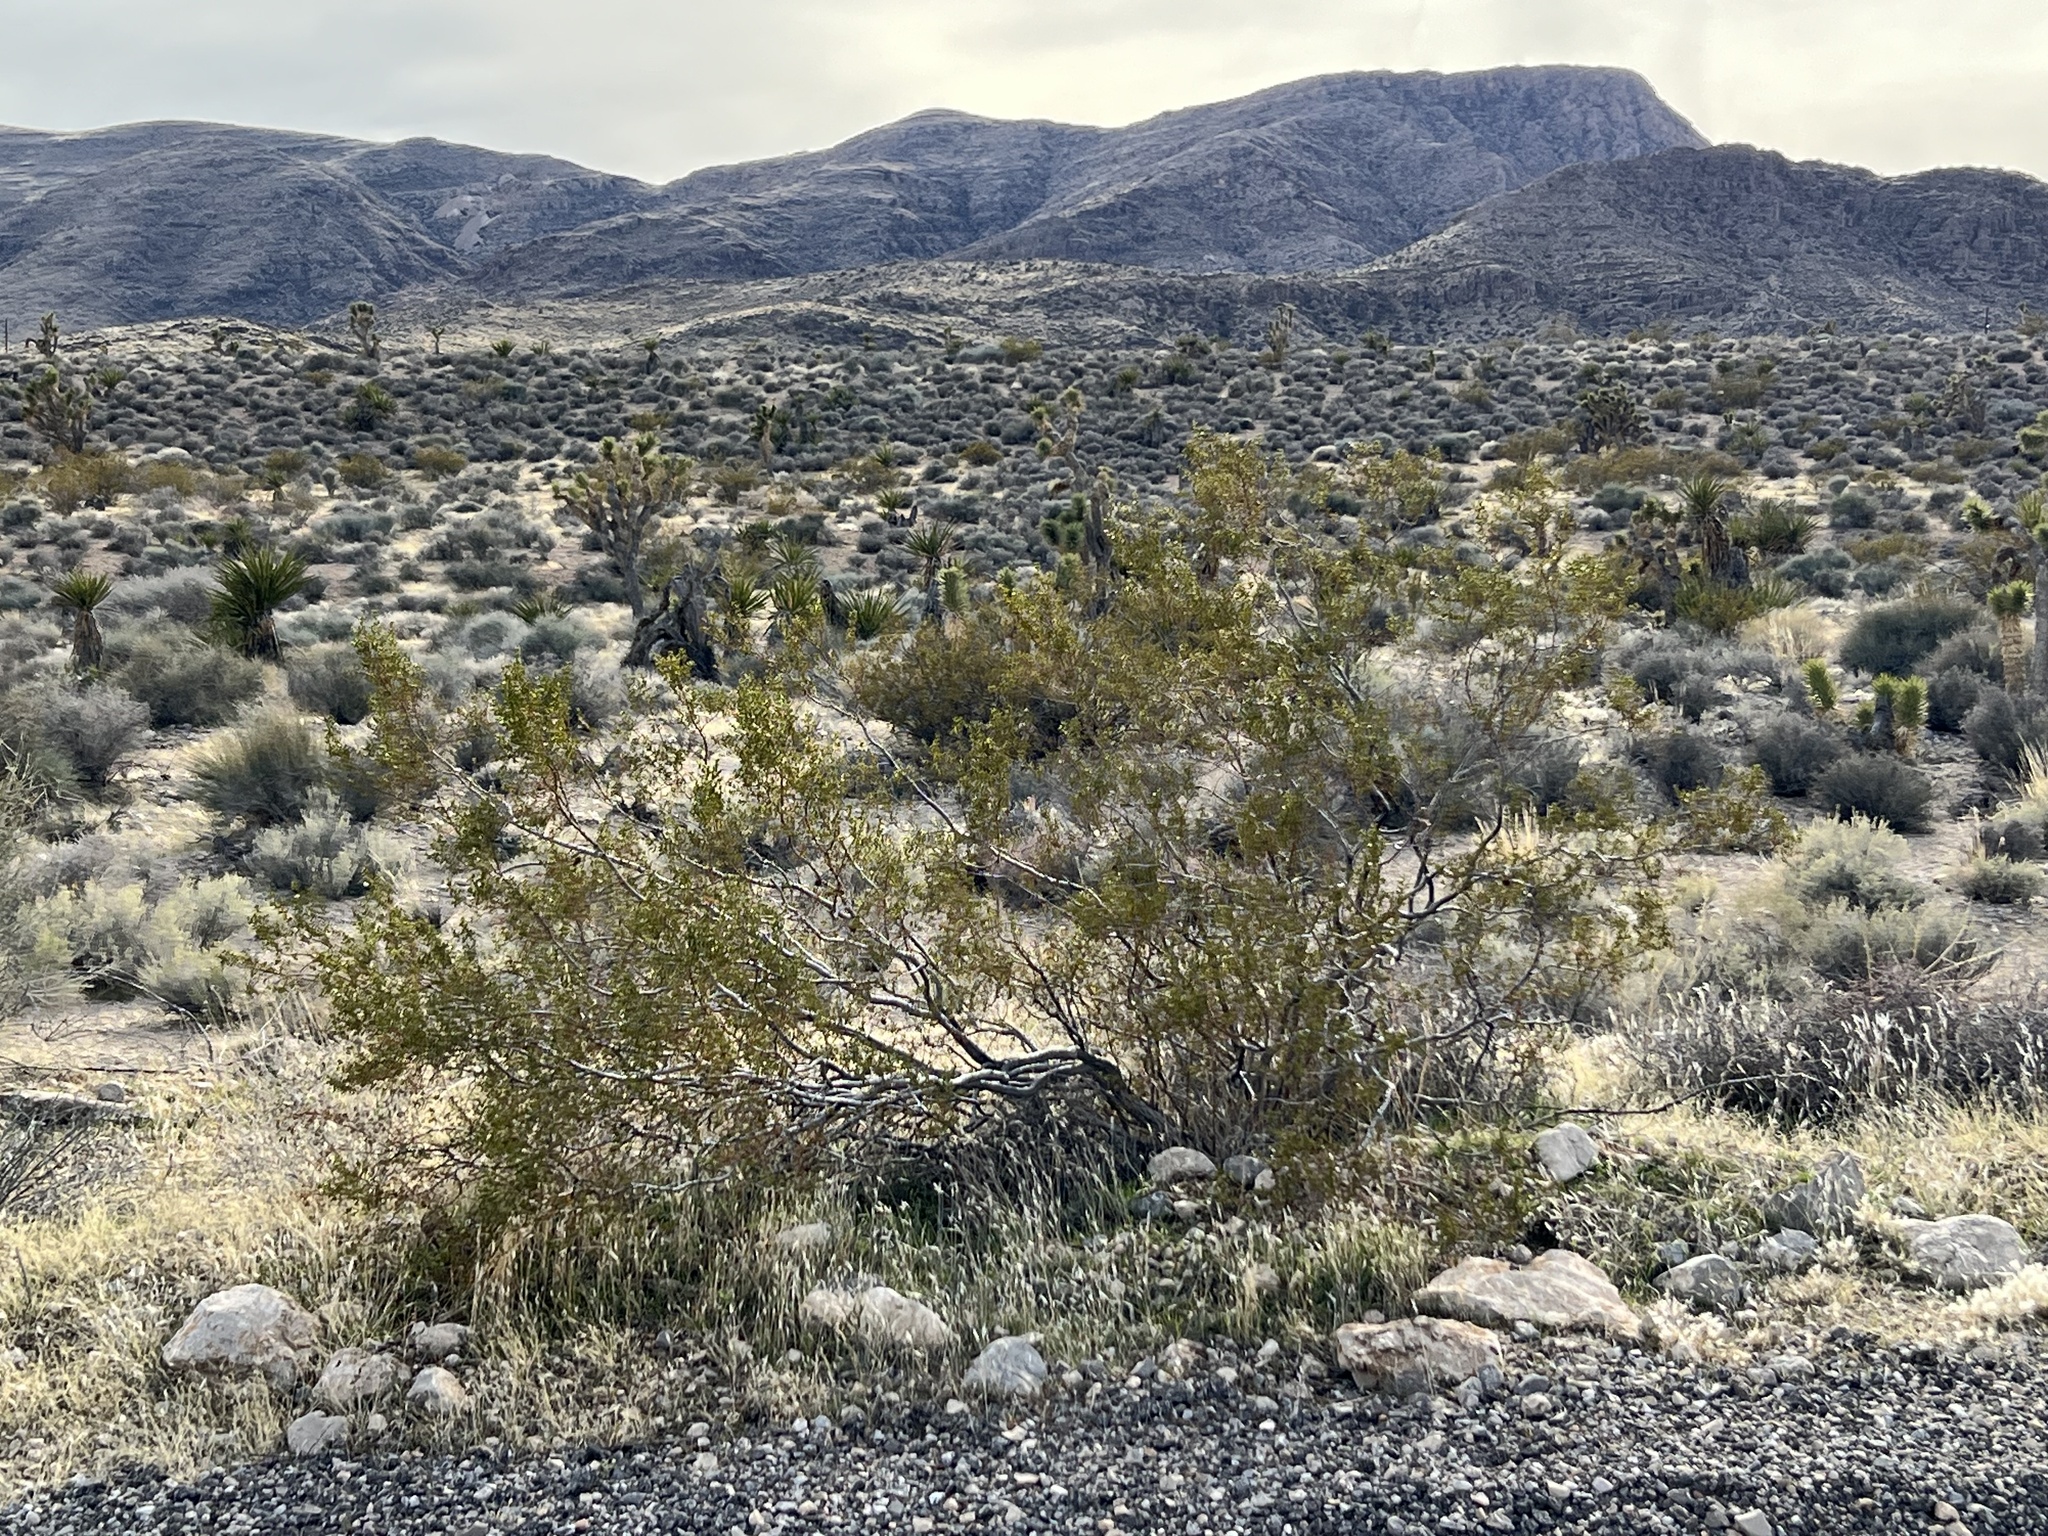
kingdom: Plantae
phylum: Tracheophyta
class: Magnoliopsida
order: Zygophyllales
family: Zygophyllaceae
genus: Larrea
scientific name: Larrea tridentata
